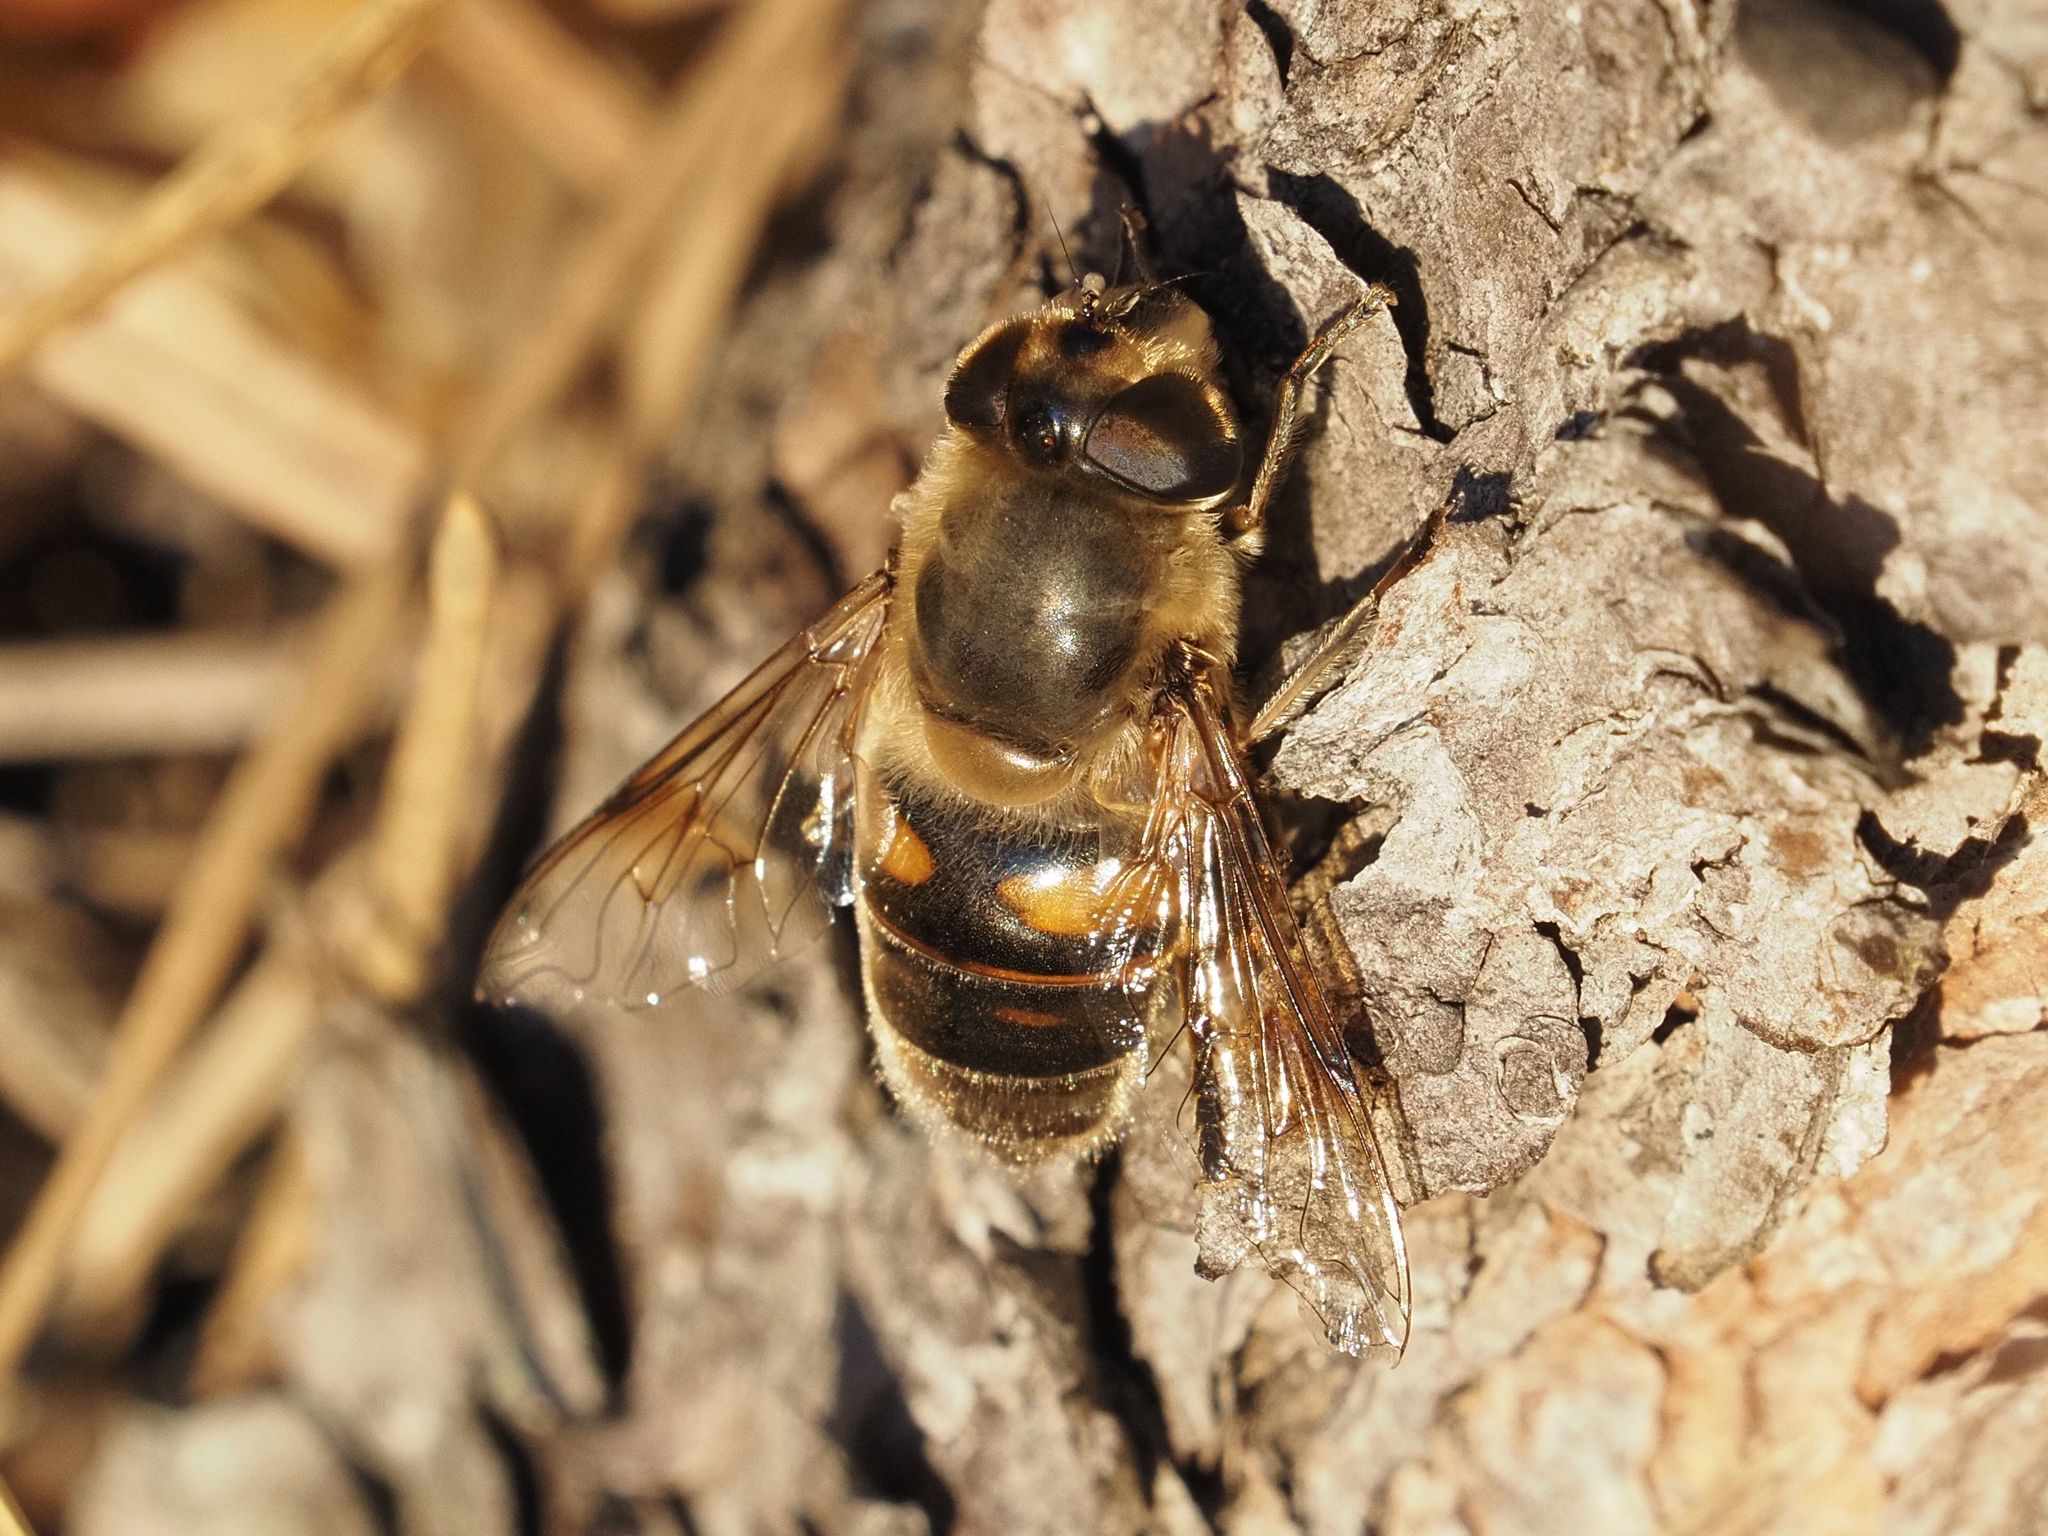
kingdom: Animalia
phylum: Arthropoda
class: Insecta
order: Diptera
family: Syrphidae
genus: Eristalis
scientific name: Eristalis tenax
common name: Drone fly
